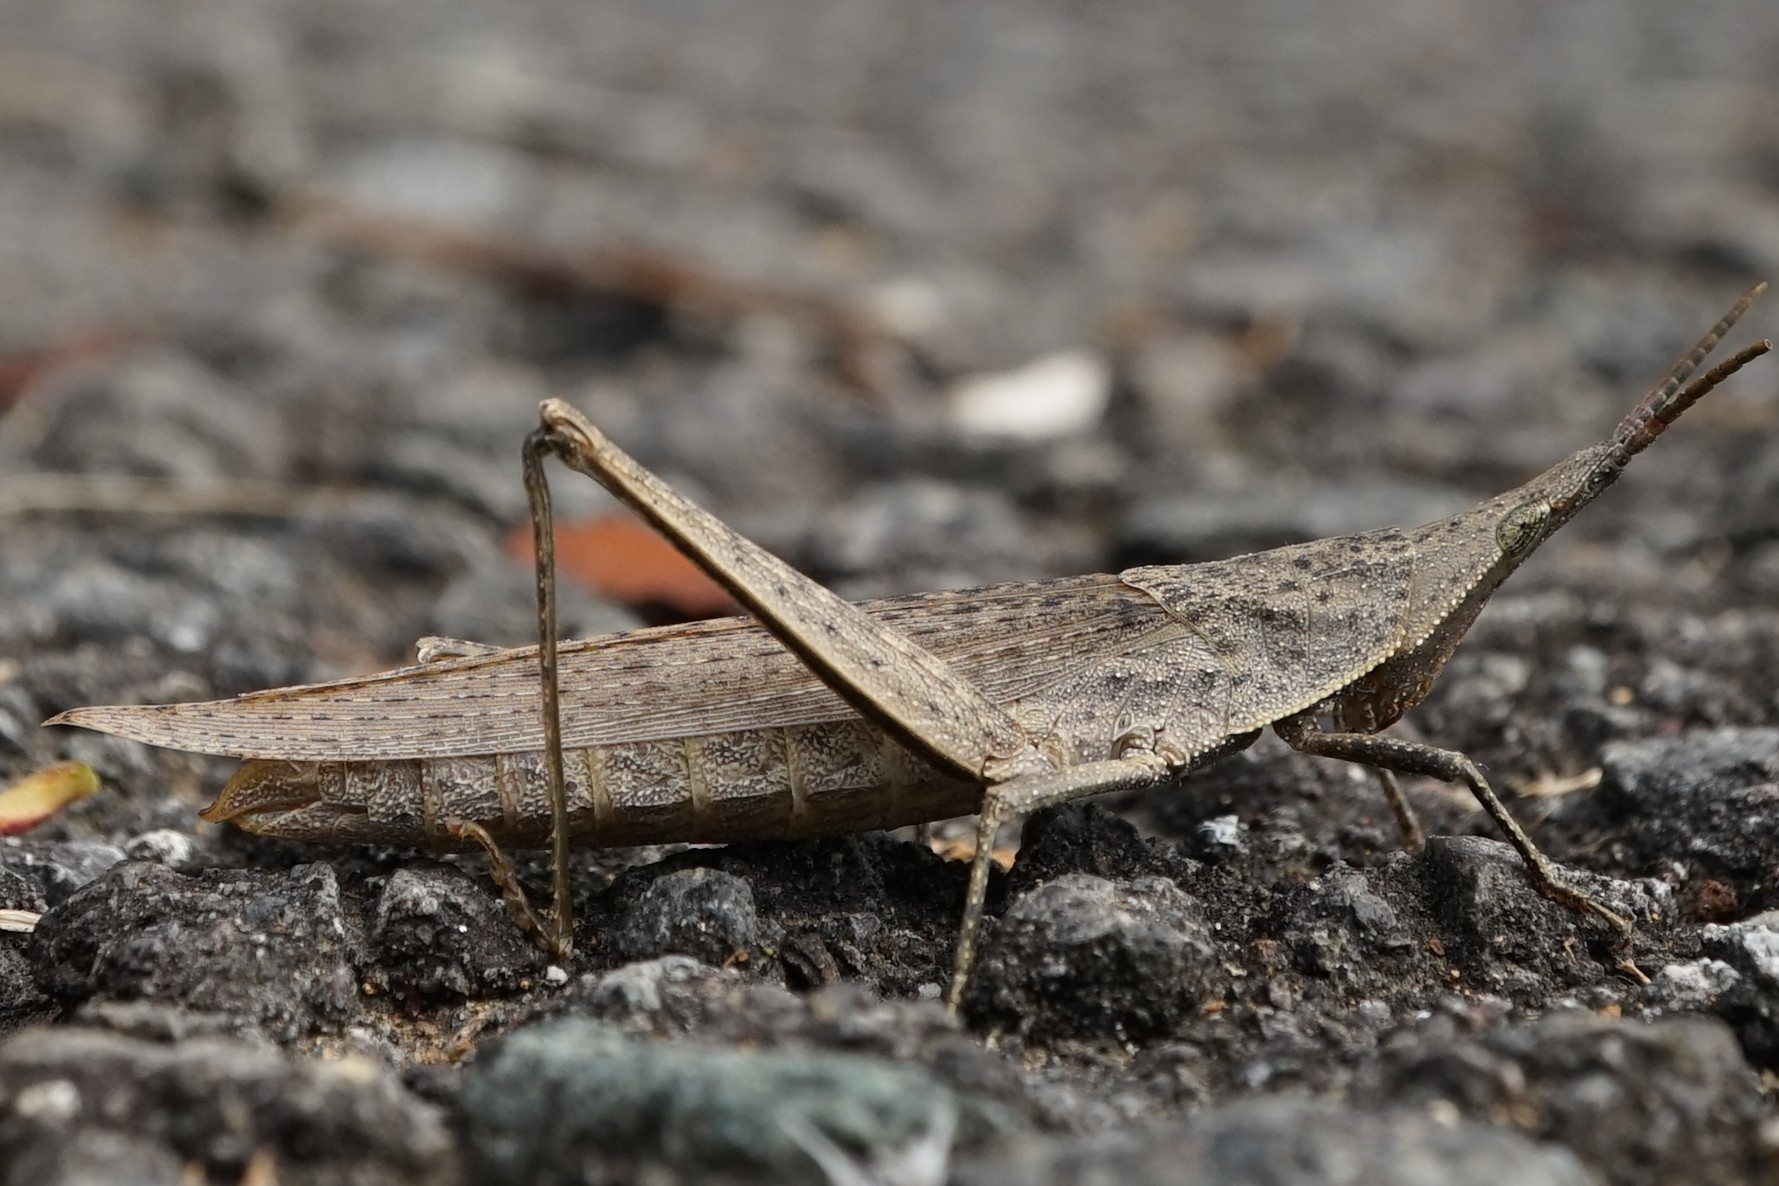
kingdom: Animalia
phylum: Arthropoda
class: Insecta
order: Orthoptera
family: Pyrgomorphidae
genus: Atractomorpha
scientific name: Atractomorpha lata
